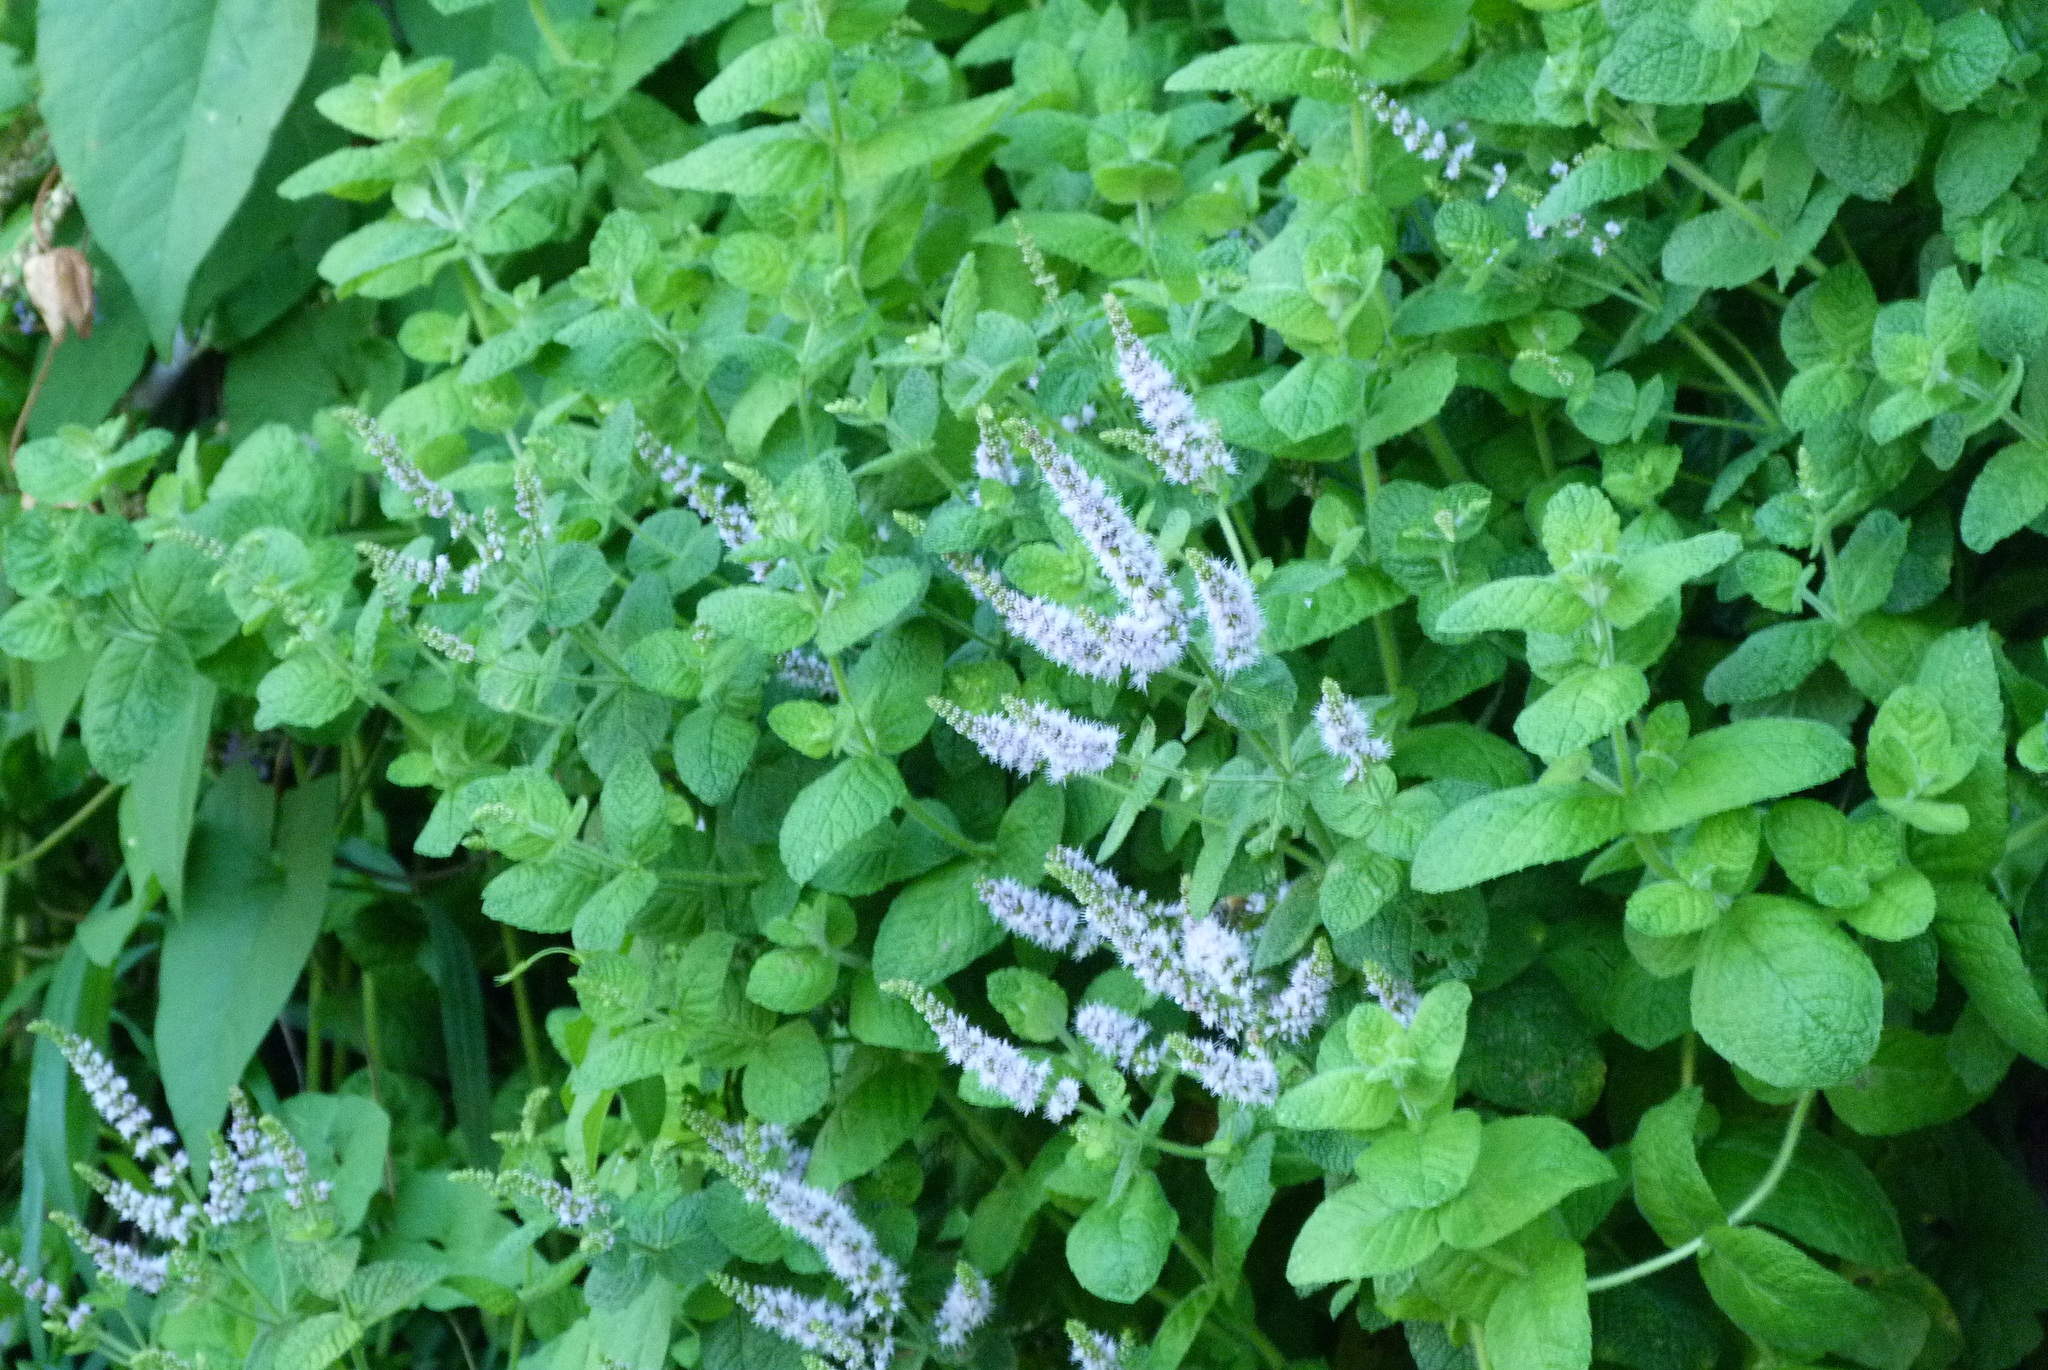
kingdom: Plantae
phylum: Tracheophyta
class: Magnoliopsida
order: Lamiales
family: Lamiaceae
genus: Mentha
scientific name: Mentha suaveolens
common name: Apple mint
